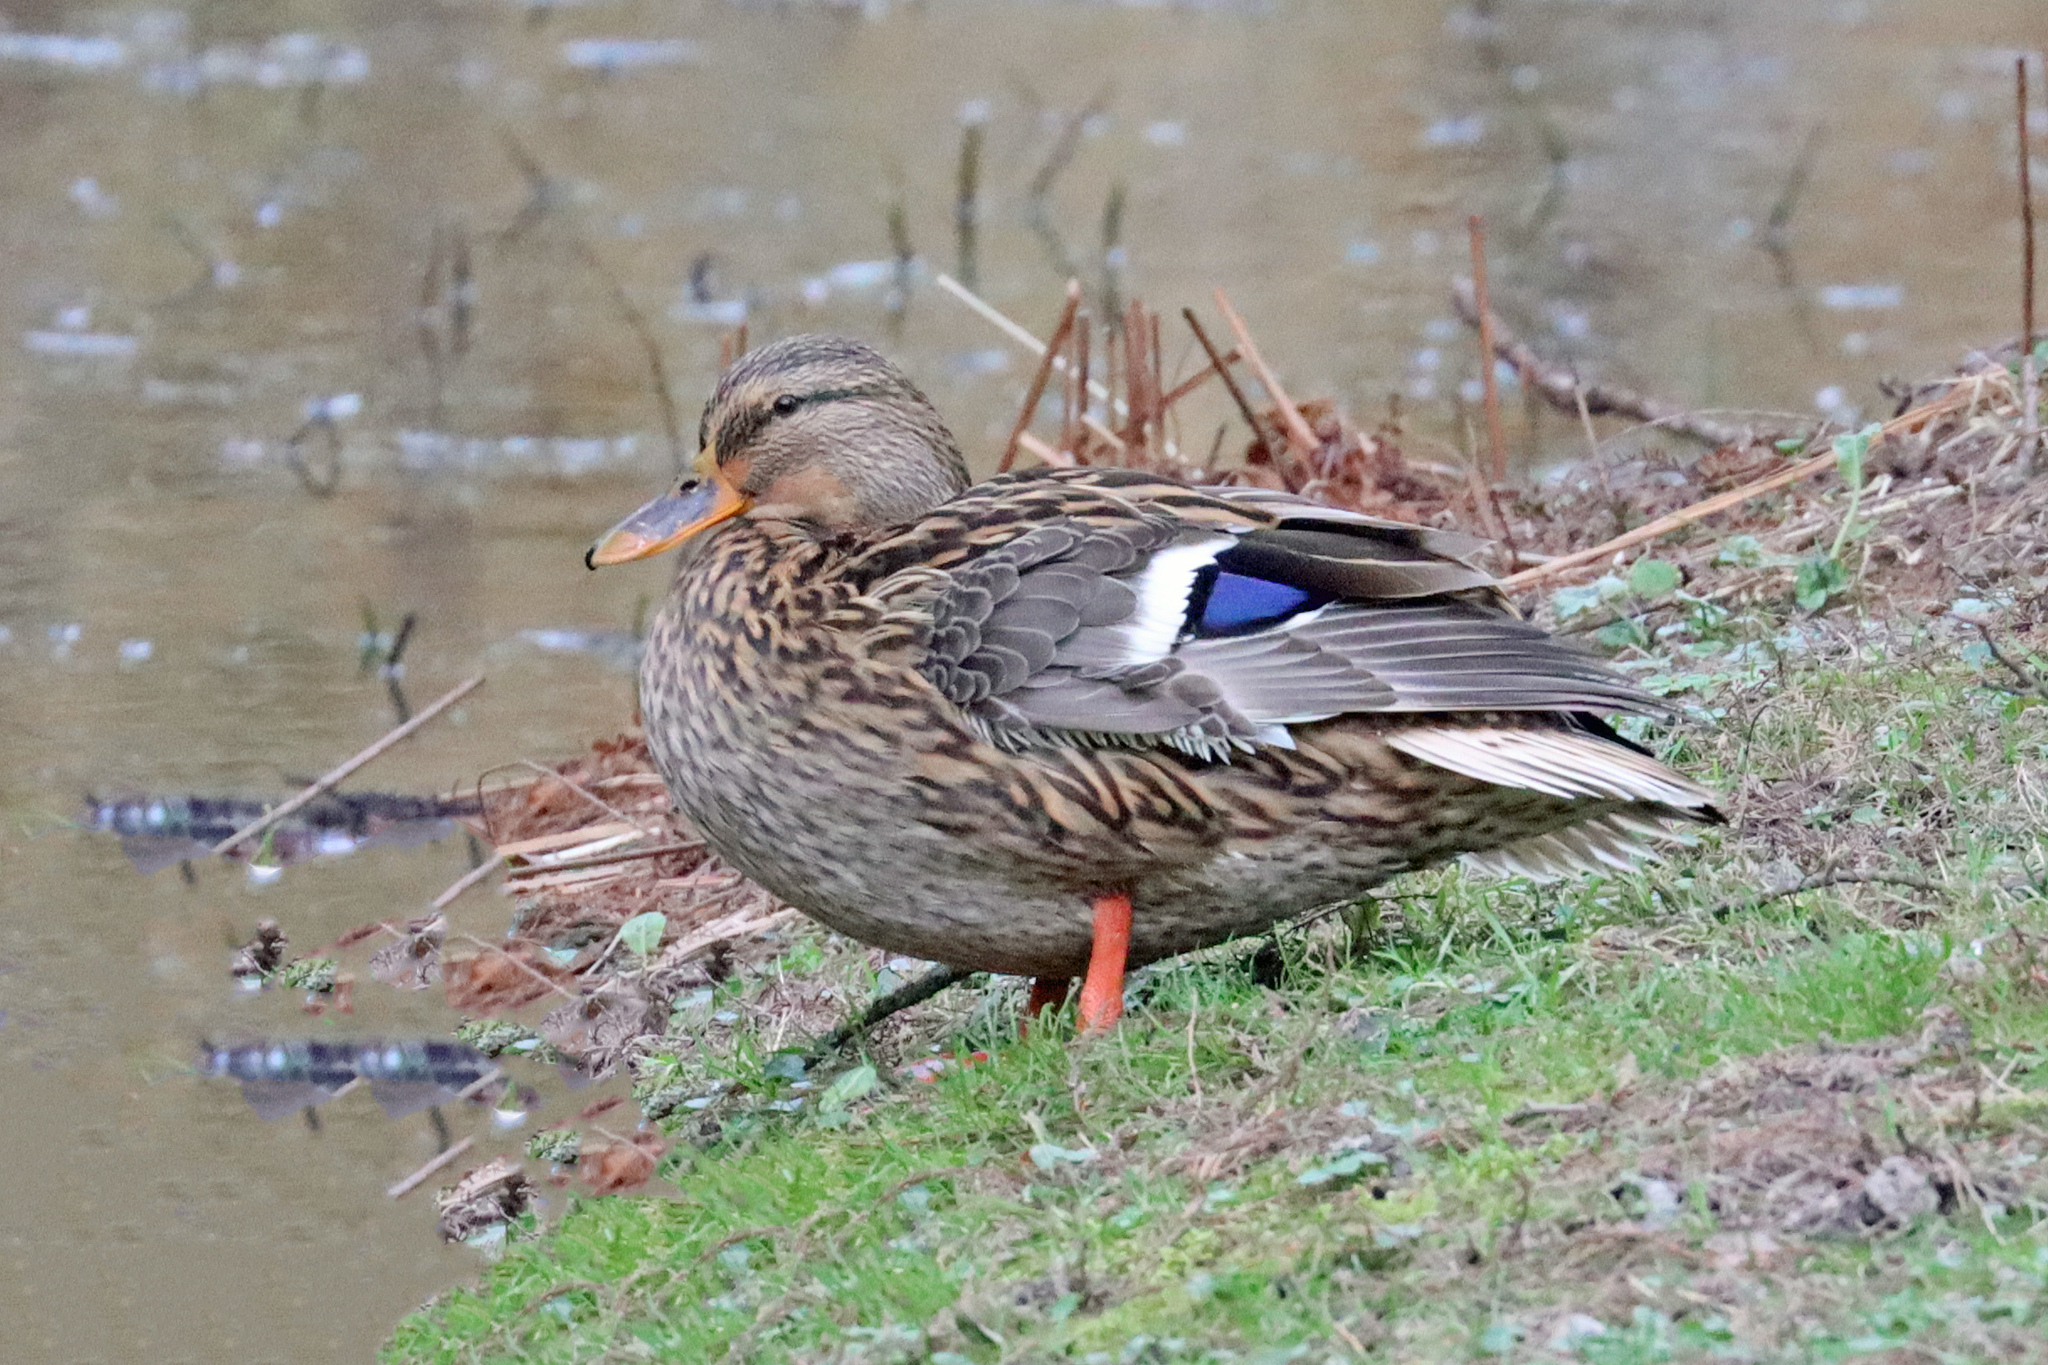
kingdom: Animalia
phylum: Chordata
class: Aves
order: Anseriformes
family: Anatidae
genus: Anas
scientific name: Anas platyrhynchos
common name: Mallard
